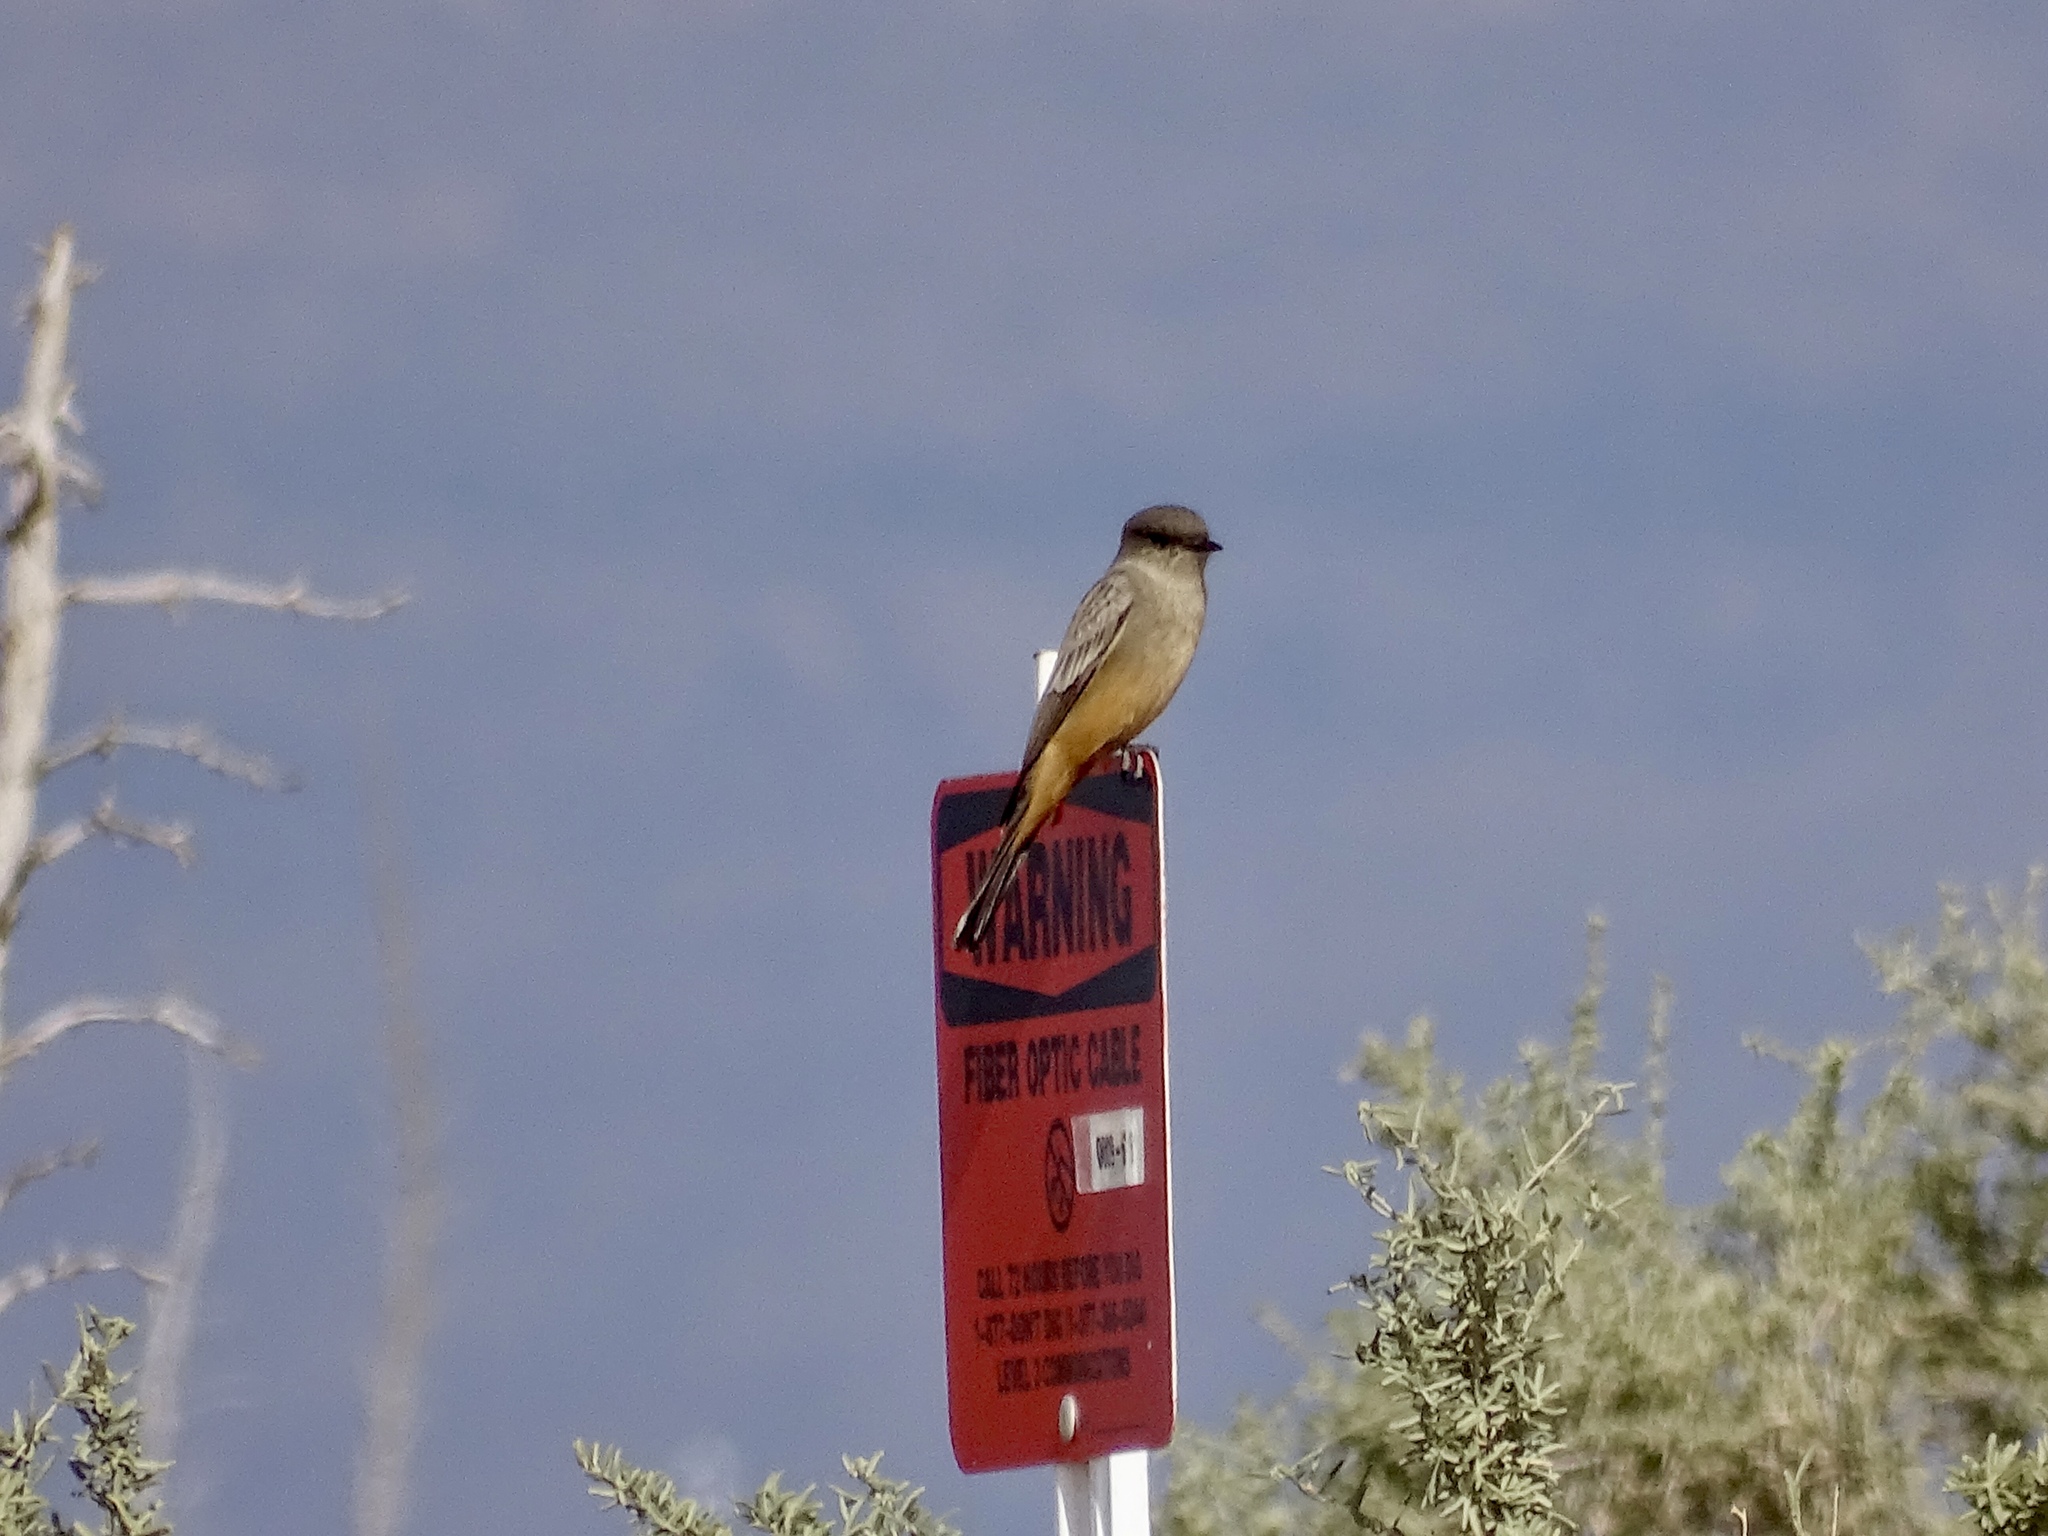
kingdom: Animalia
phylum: Chordata
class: Aves
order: Passeriformes
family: Tyrannidae
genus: Sayornis
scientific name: Sayornis saya
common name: Say's phoebe
